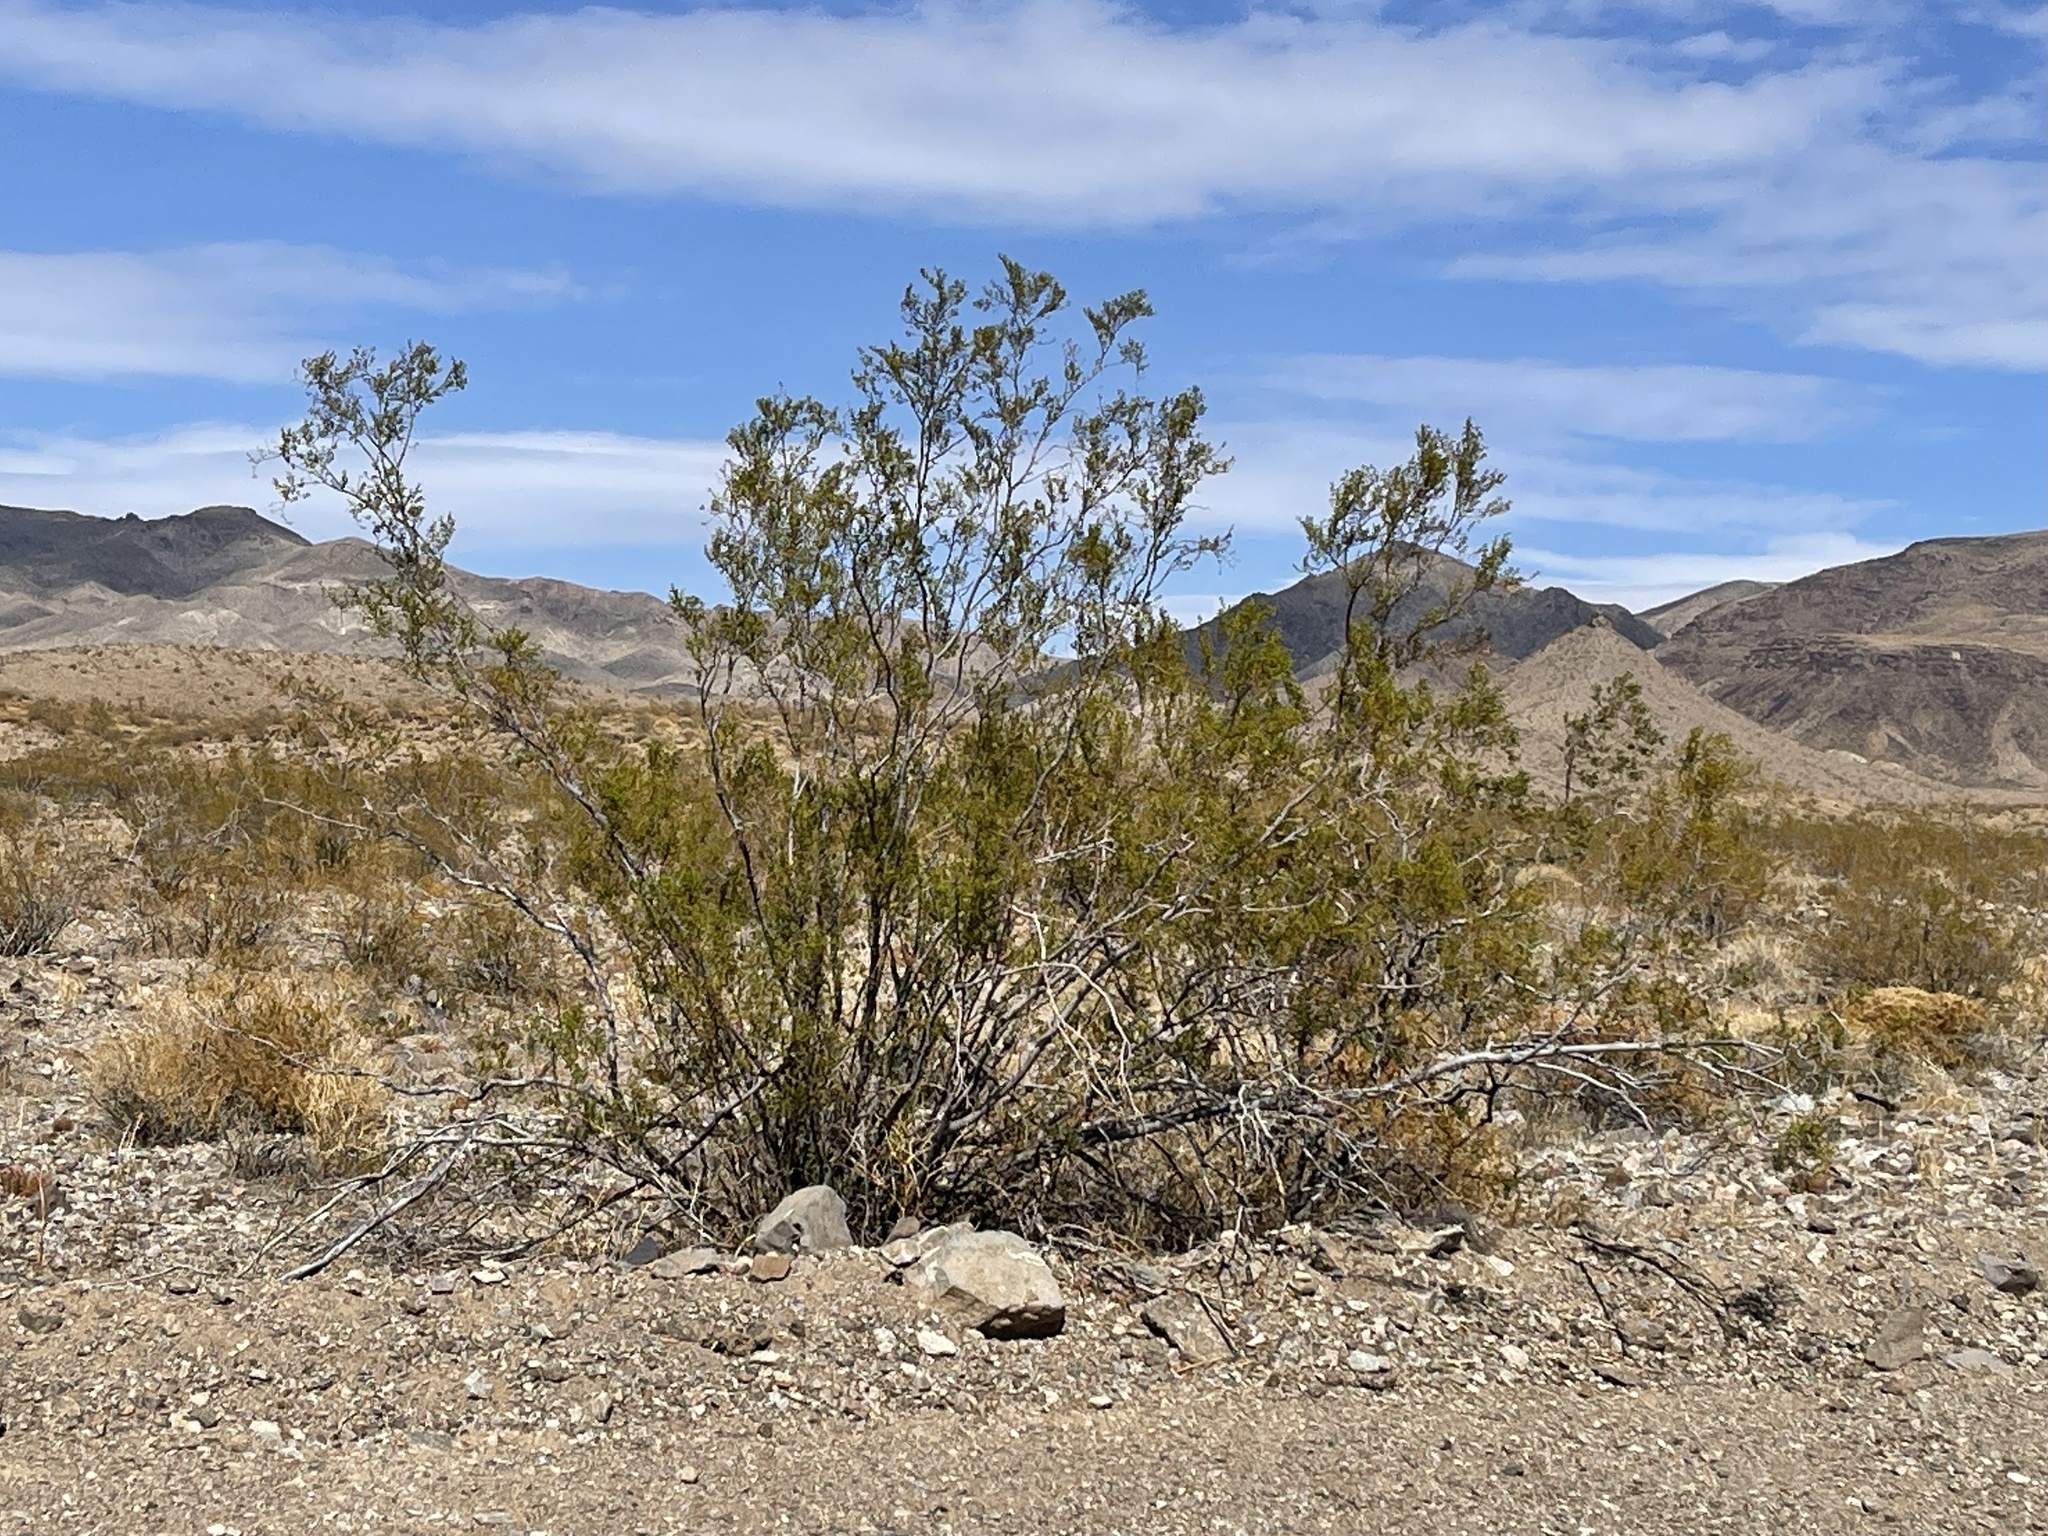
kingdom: Plantae
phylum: Tracheophyta
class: Magnoliopsida
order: Zygophyllales
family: Zygophyllaceae
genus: Larrea
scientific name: Larrea tridentata
